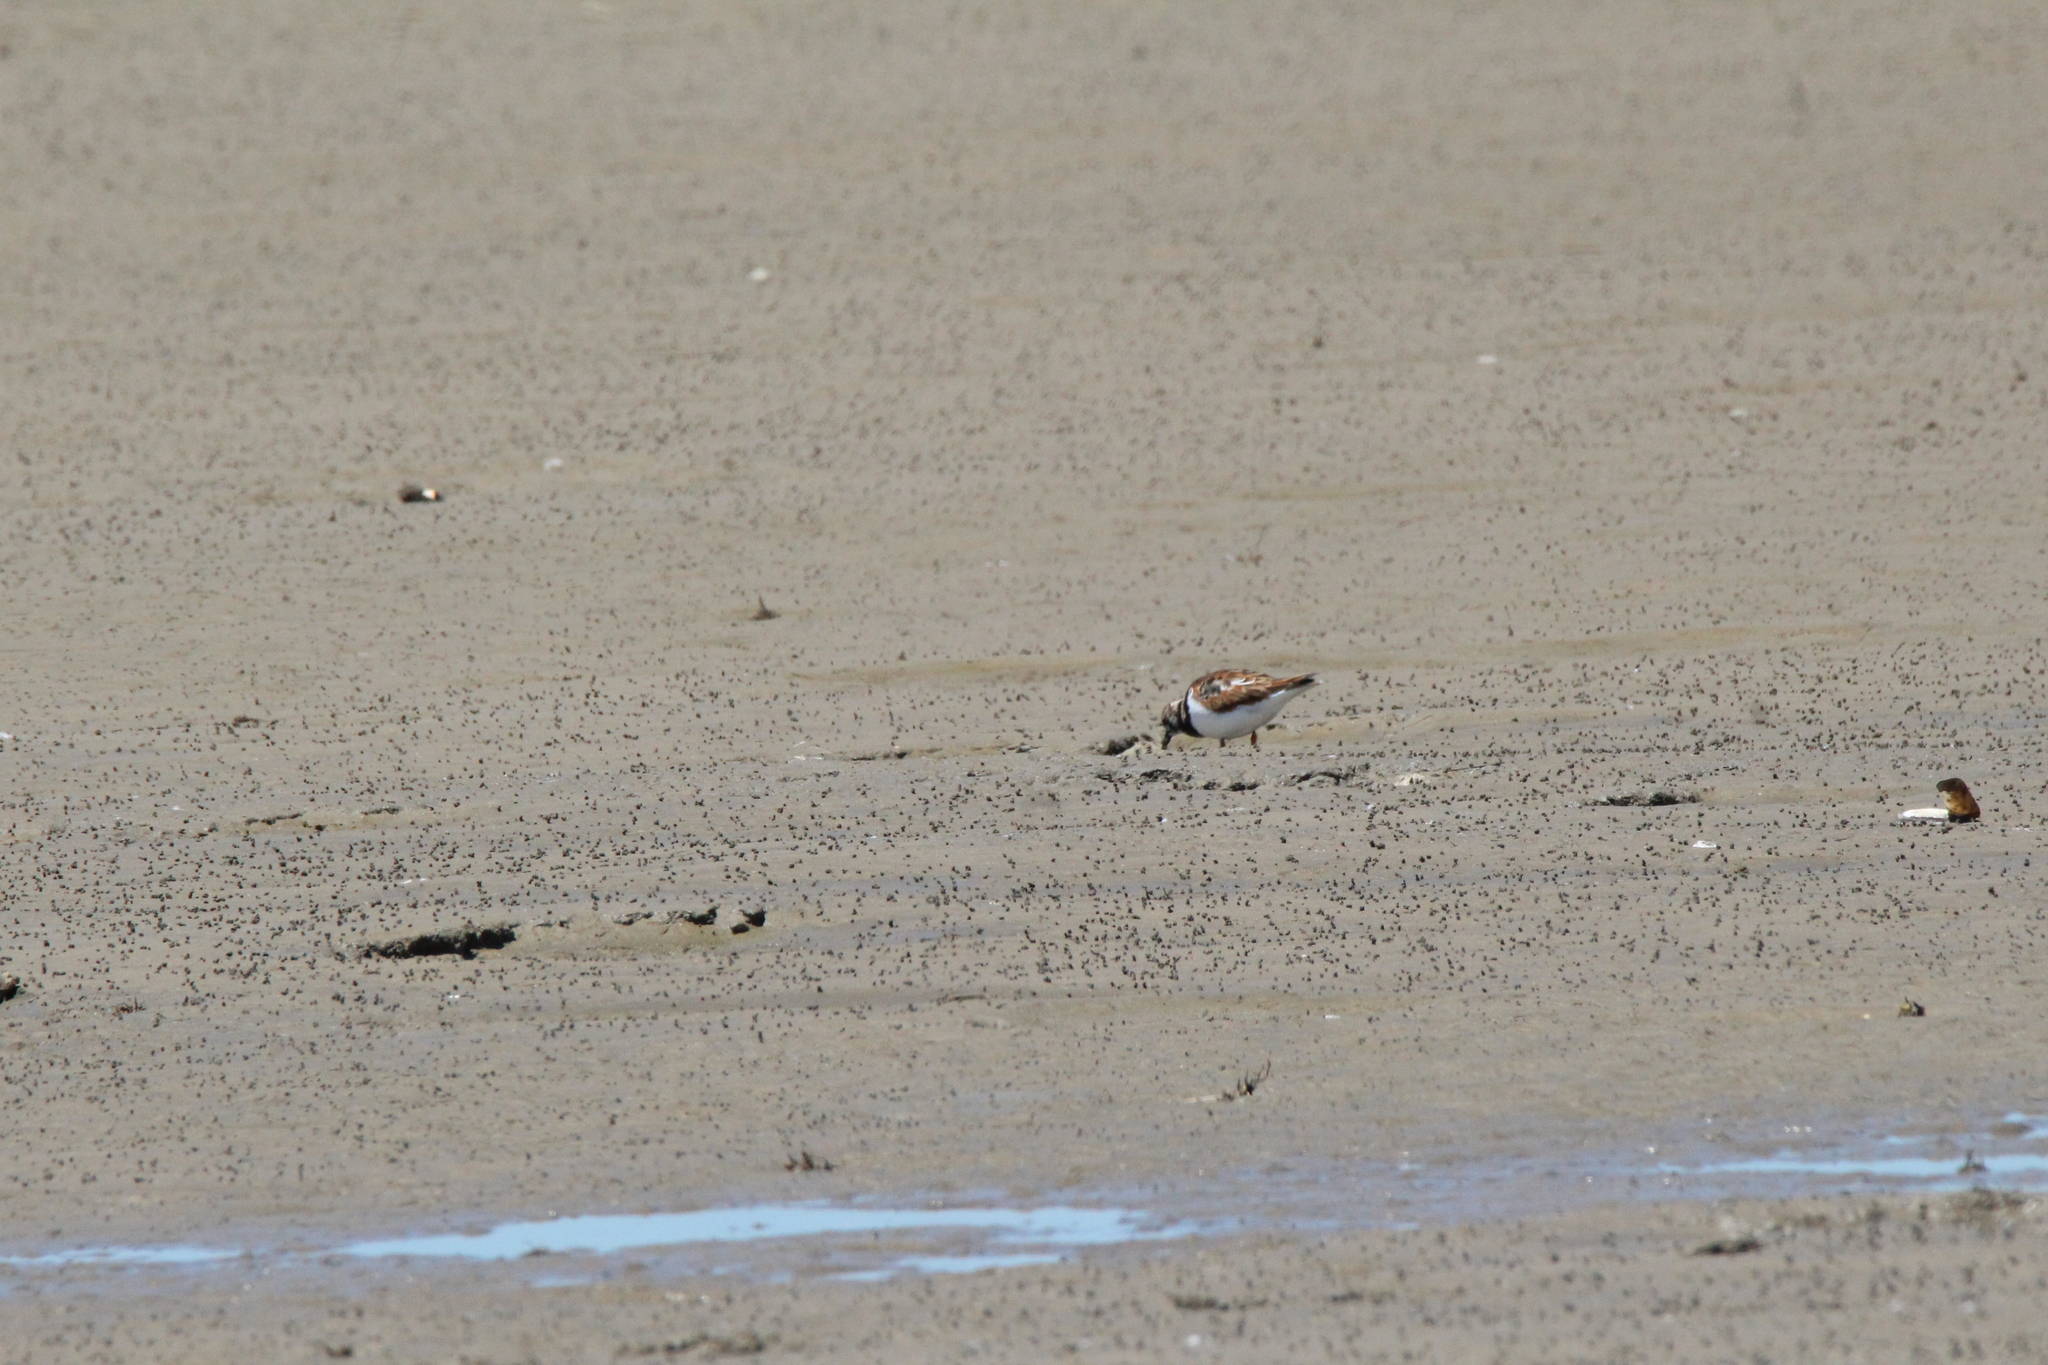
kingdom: Animalia
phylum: Chordata
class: Aves
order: Charadriiformes
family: Scolopacidae
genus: Arenaria
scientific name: Arenaria interpres
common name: Ruddy turnstone
